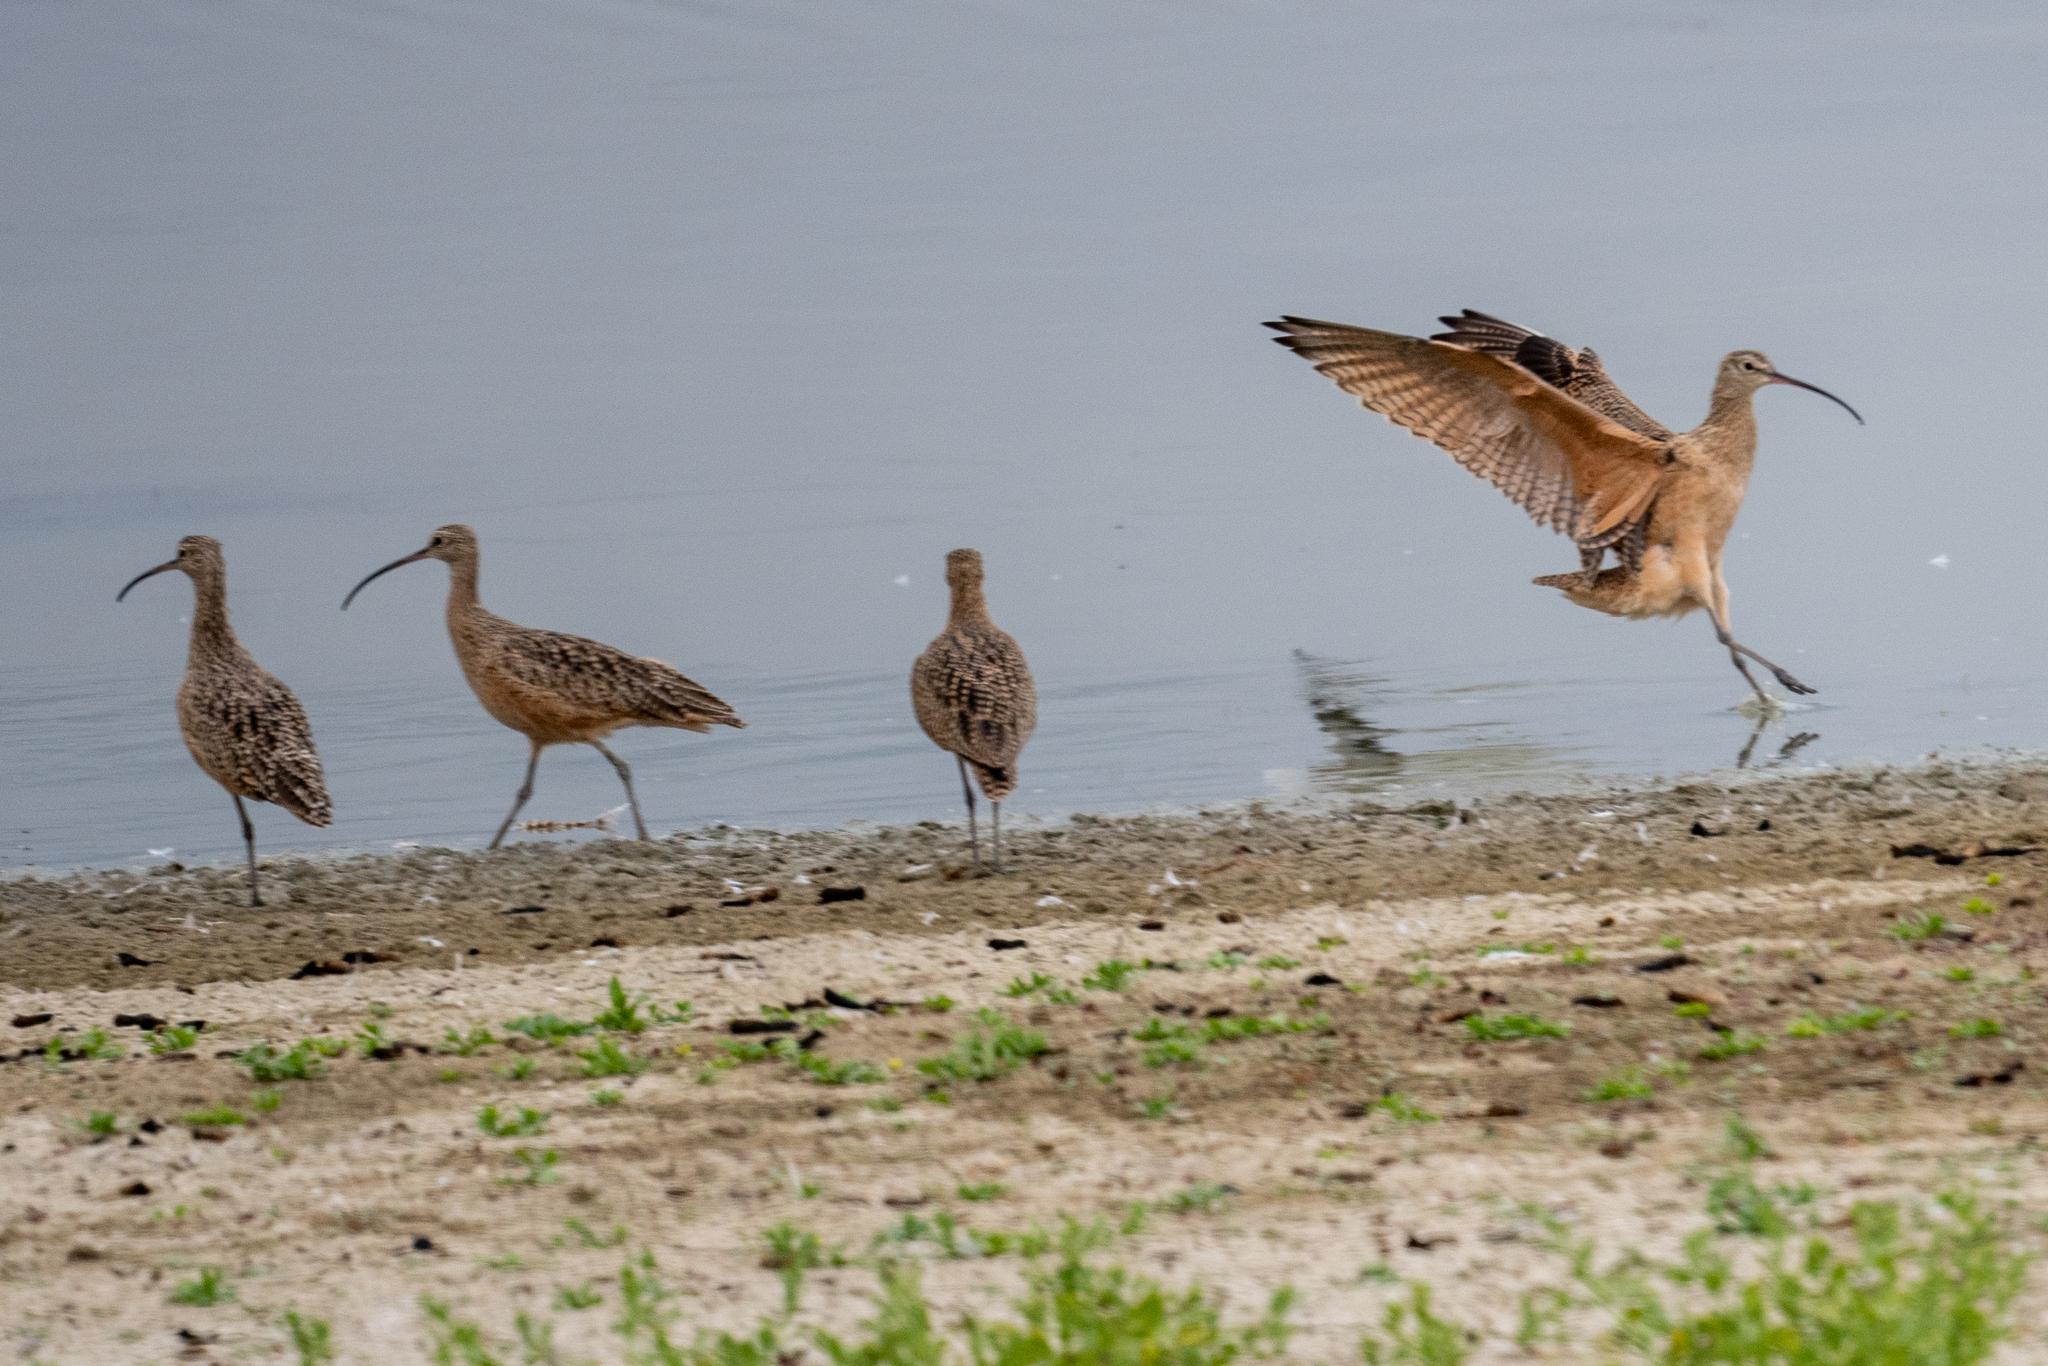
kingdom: Animalia
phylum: Chordata
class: Aves
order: Charadriiformes
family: Scolopacidae
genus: Numenius
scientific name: Numenius americanus
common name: Long-billed curlew
